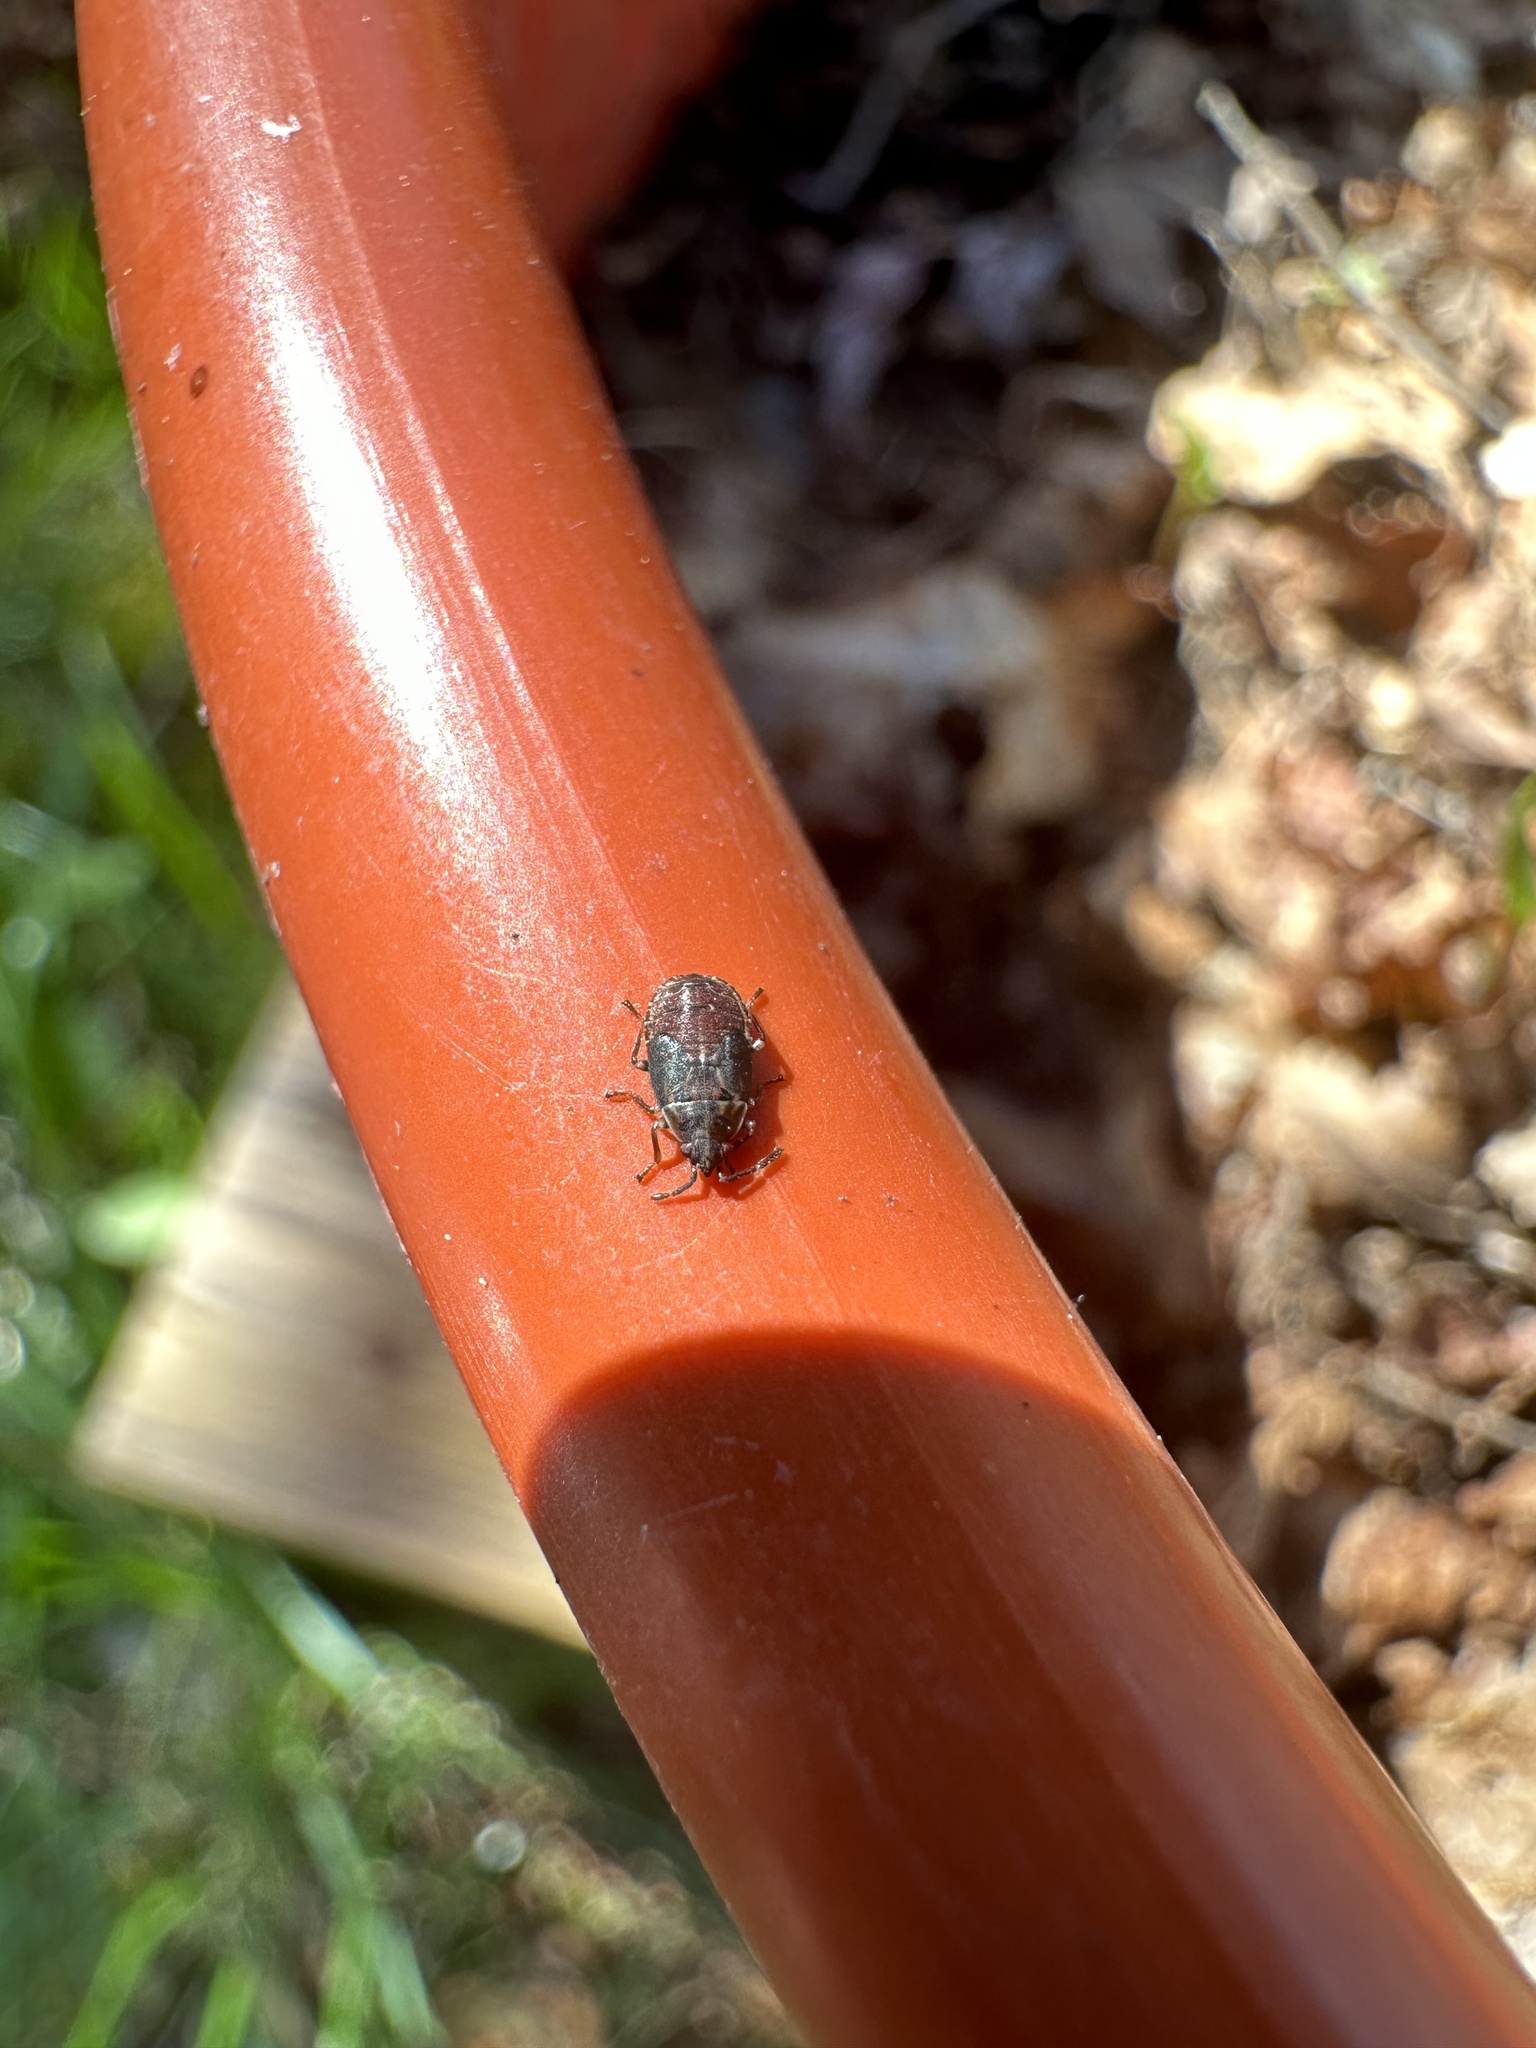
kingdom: Animalia
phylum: Arthropoda
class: Insecta
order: Hemiptera
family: Rhyparochromidae
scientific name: Rhyparochromidae
